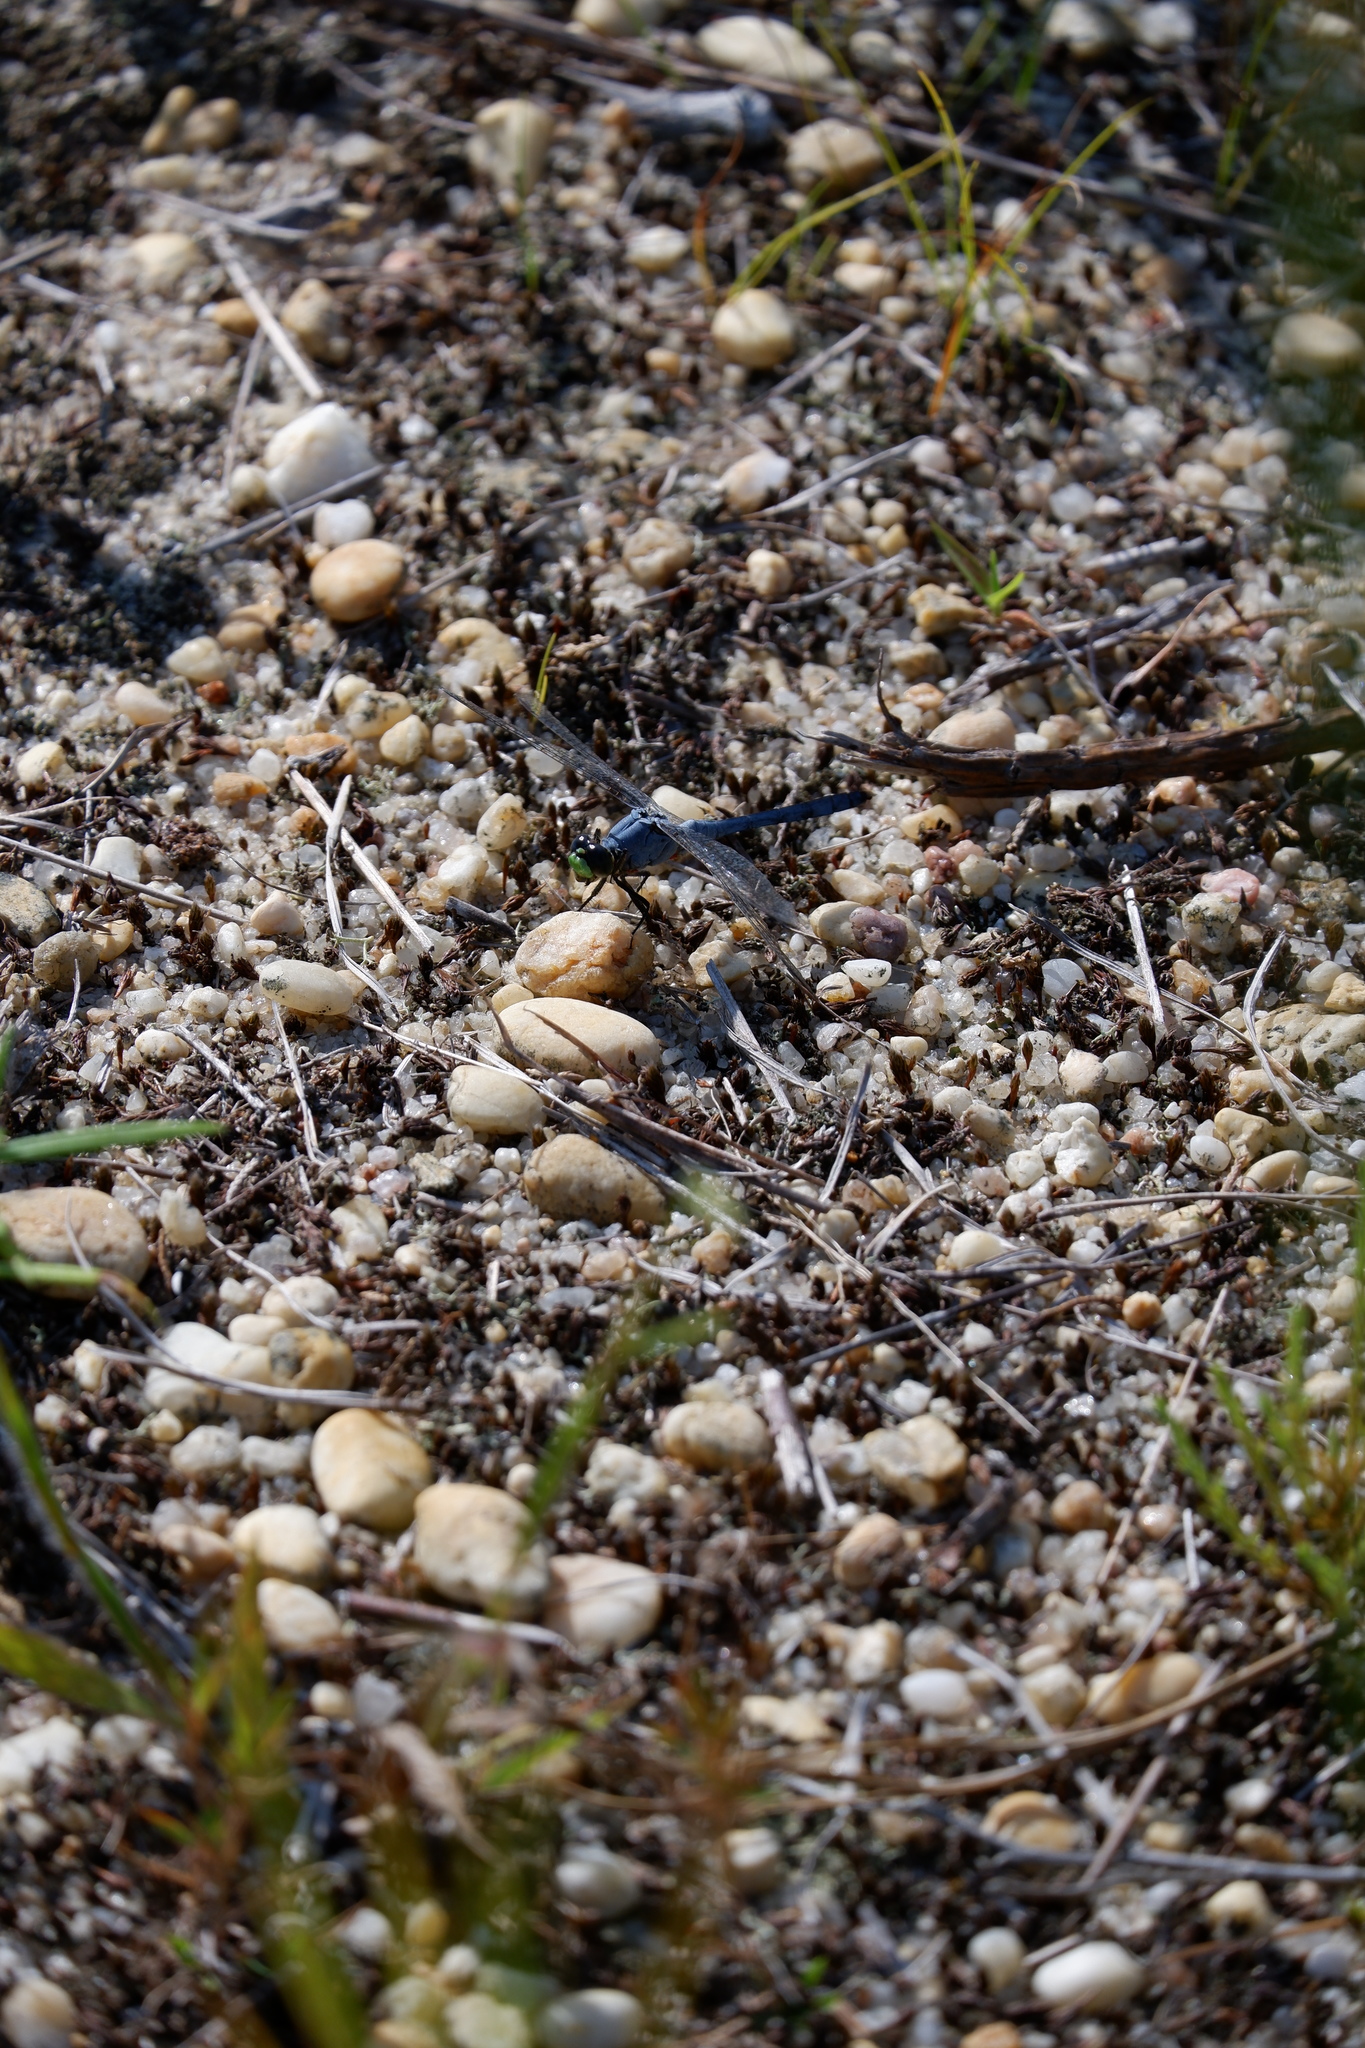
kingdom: Animalia
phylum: Arthropoda
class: Insecta
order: Odonata
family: Libellulidae
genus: Pachydiplax
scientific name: Pachydiplax longipennis
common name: Blue dasher
